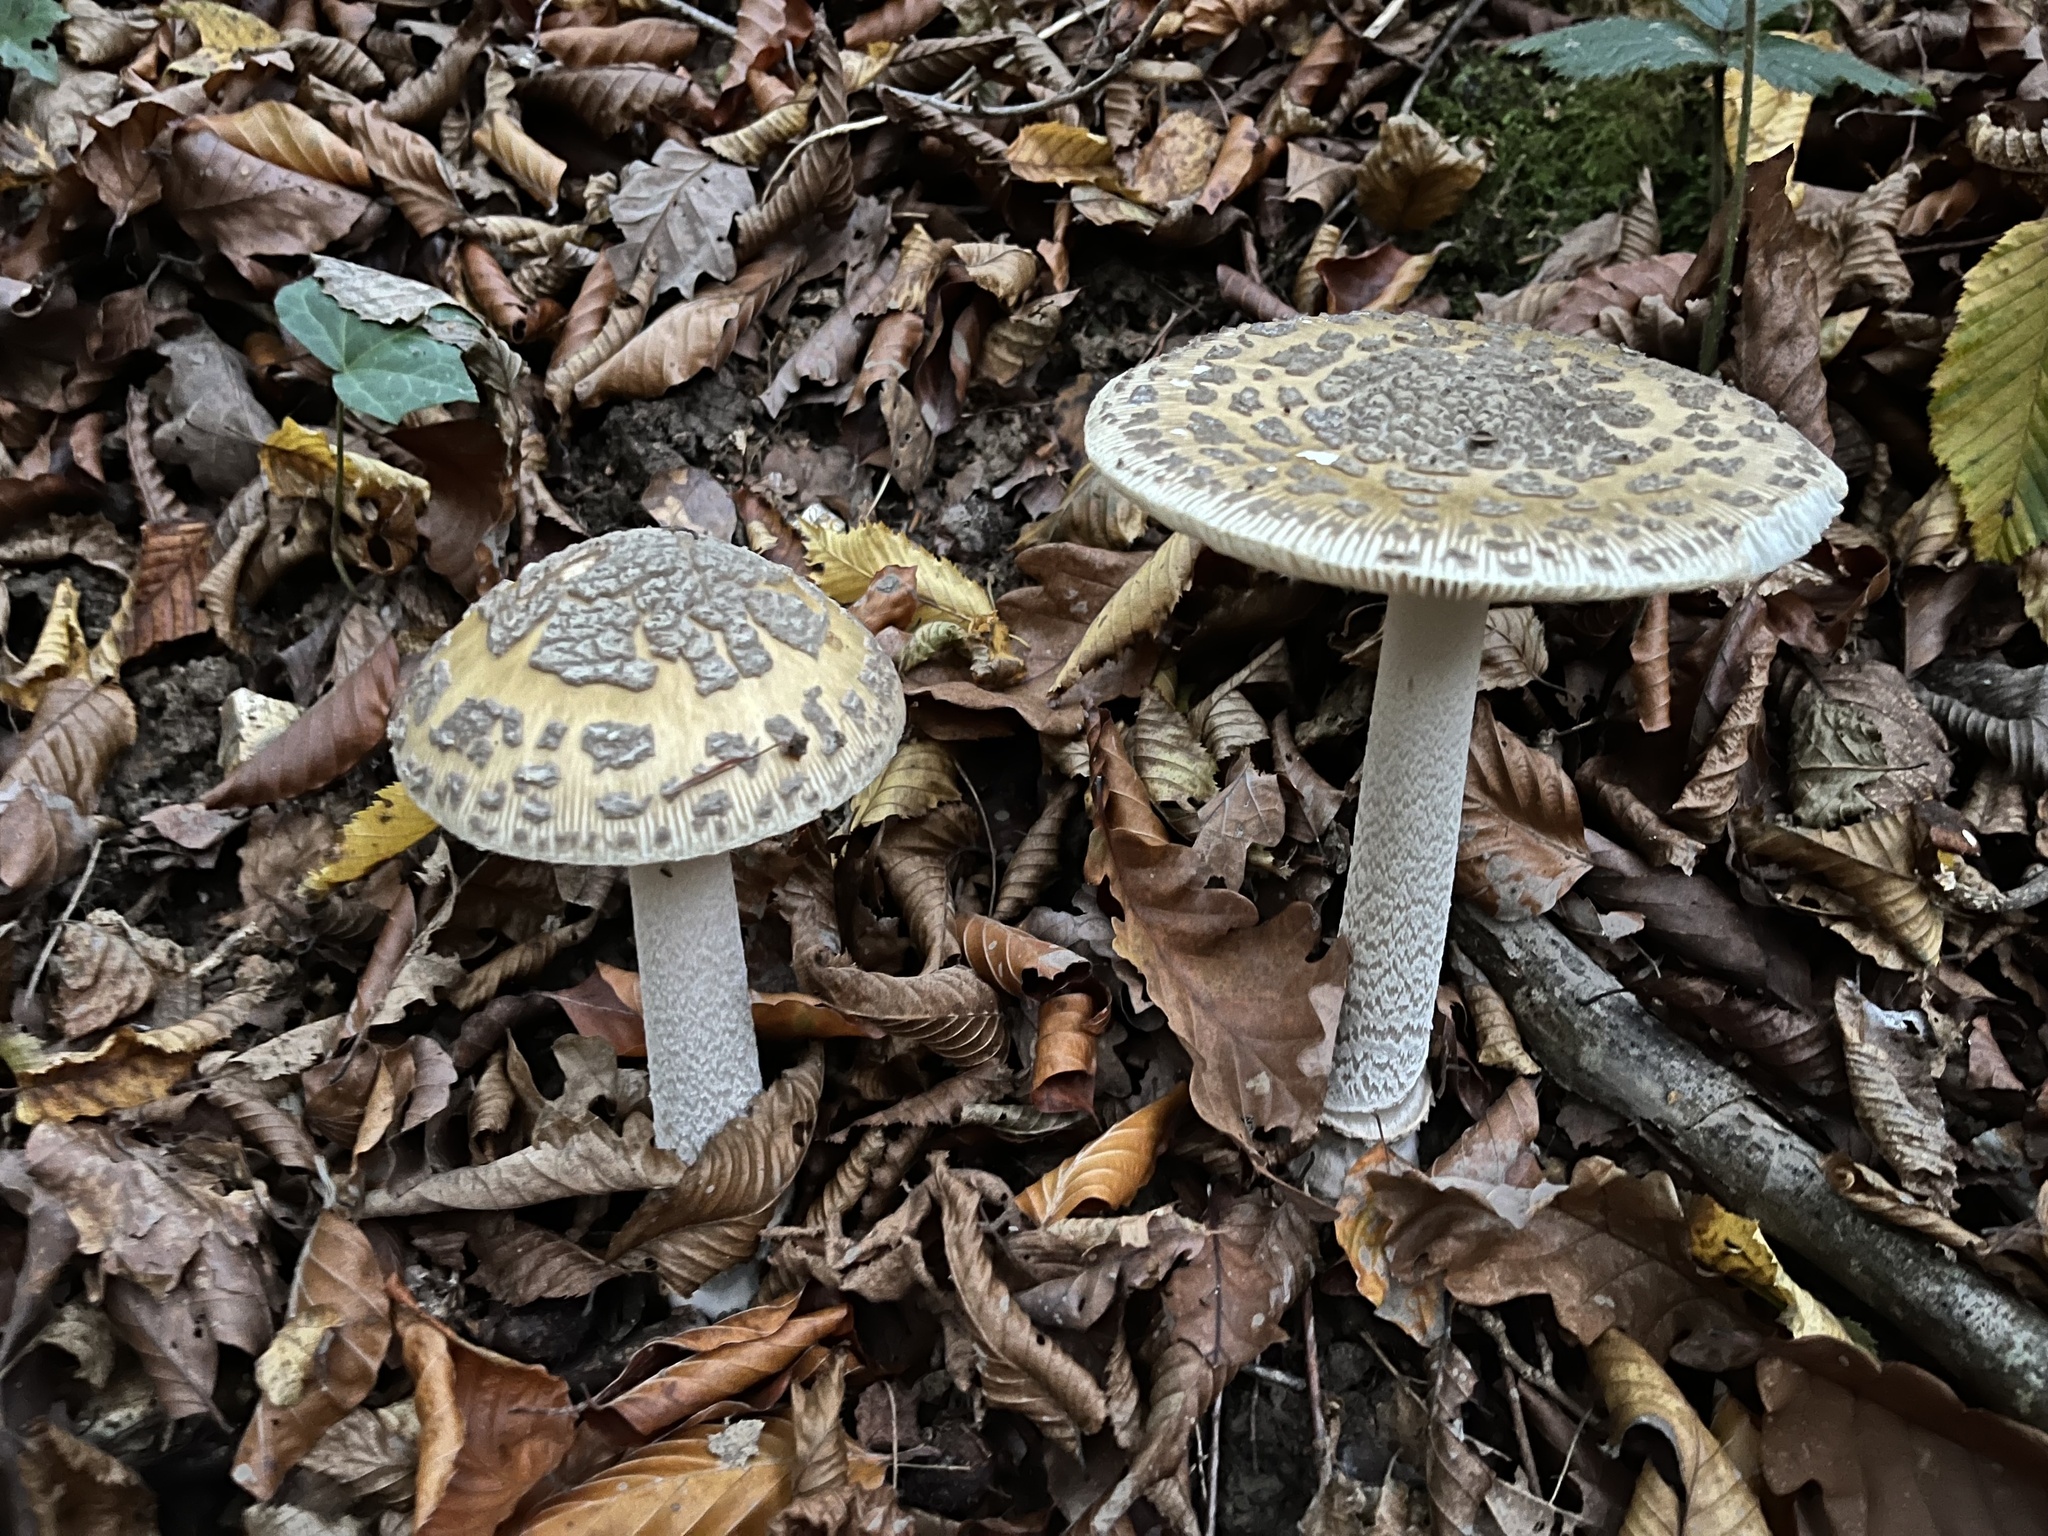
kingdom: Fungi
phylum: Basidiomycota
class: Agaricomycetes
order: Agaricales
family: Amanitaceae
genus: Amanita
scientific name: Amanita ceciliae
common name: Snakeskin grisette
